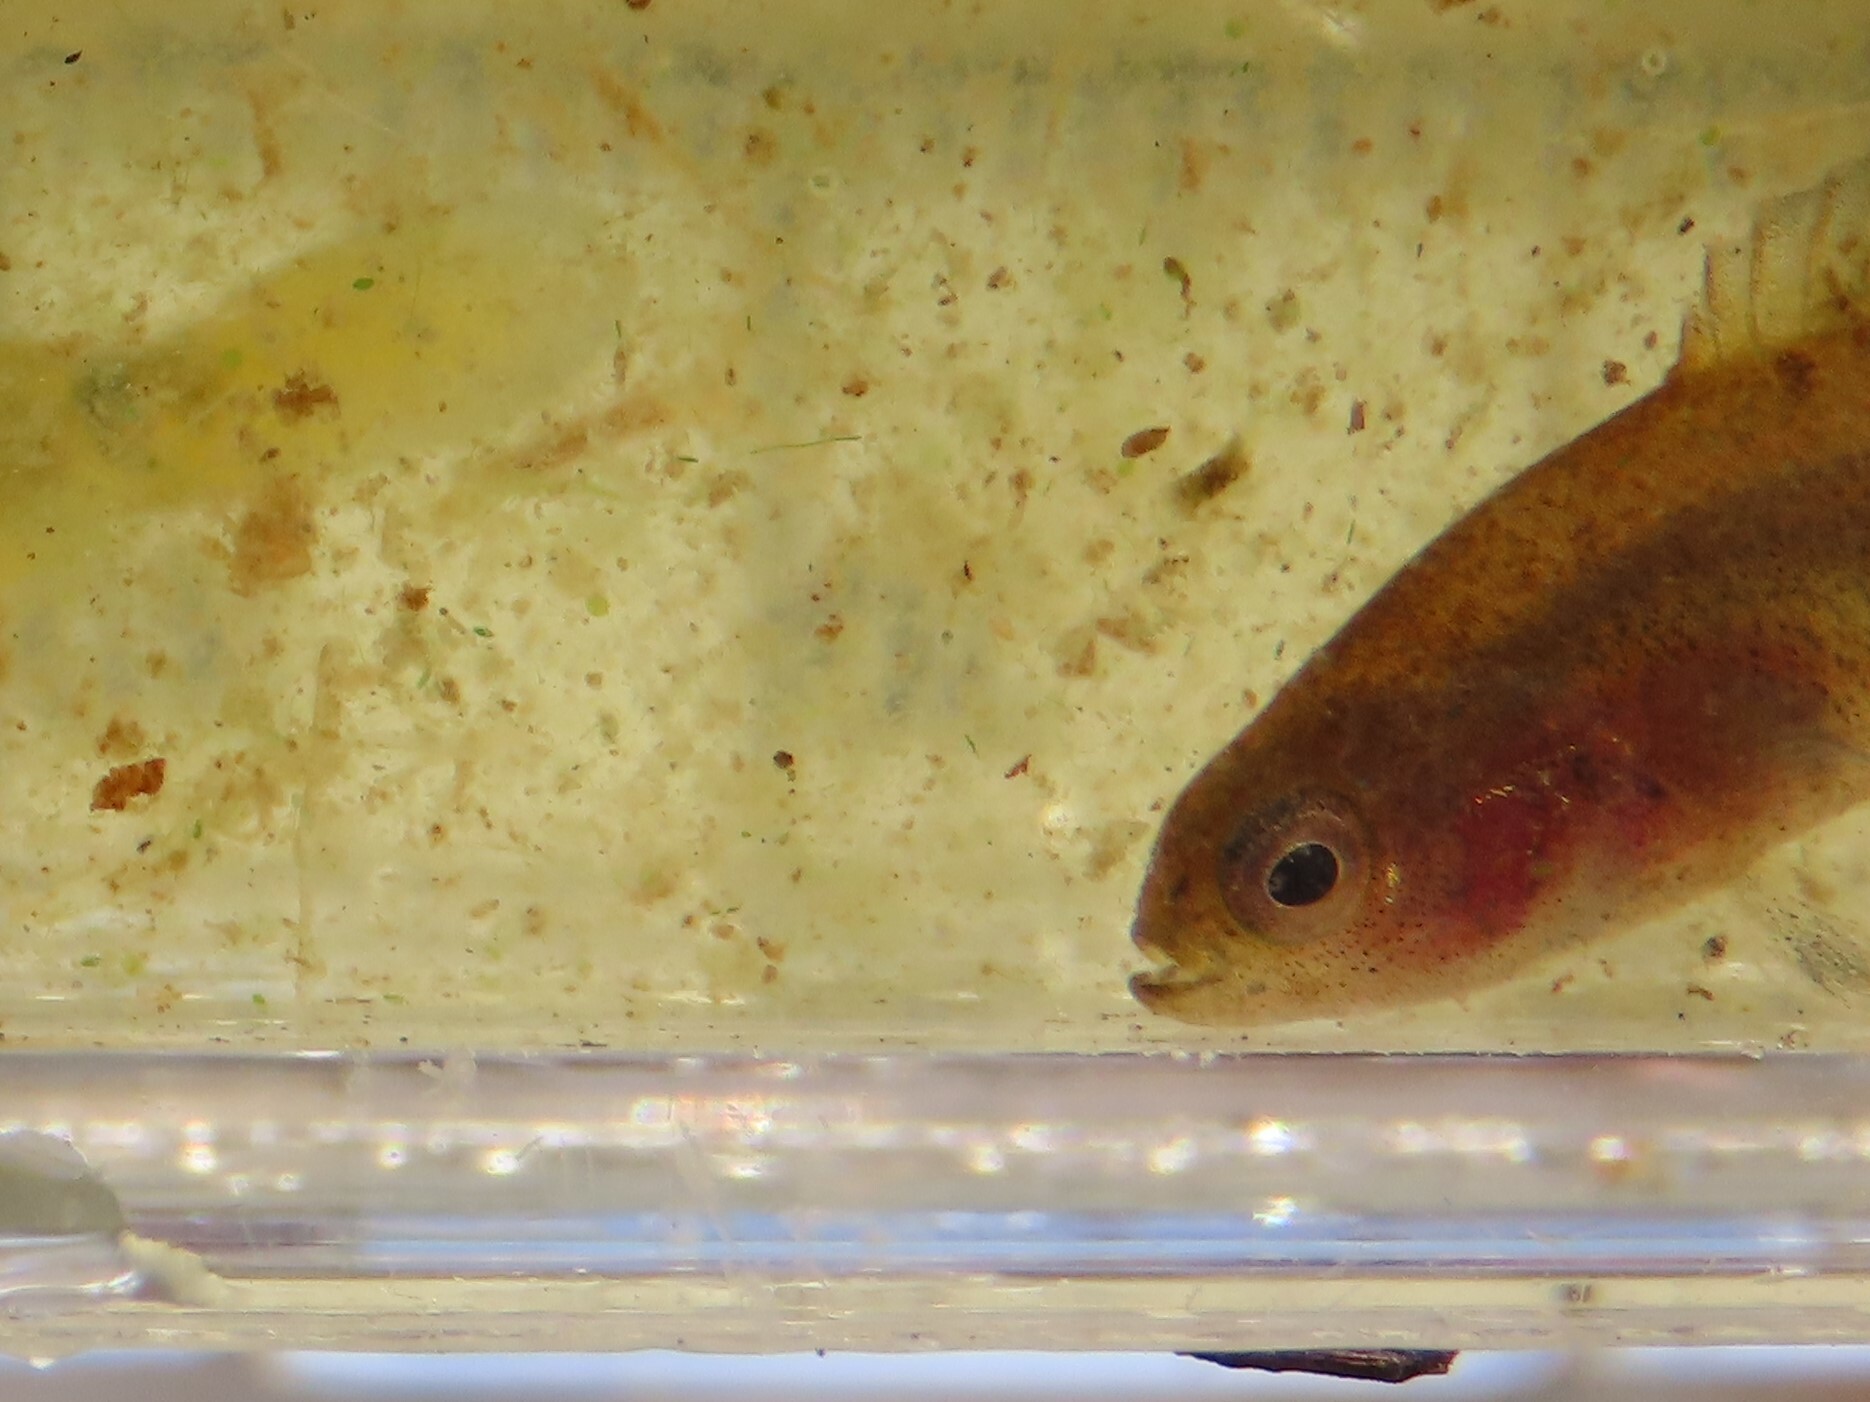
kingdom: Animalia
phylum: Chordata
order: Perciformes
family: Elassomatidae
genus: Elassoma
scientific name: Elassoma evergladei
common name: Everglades pygmy sunfish
